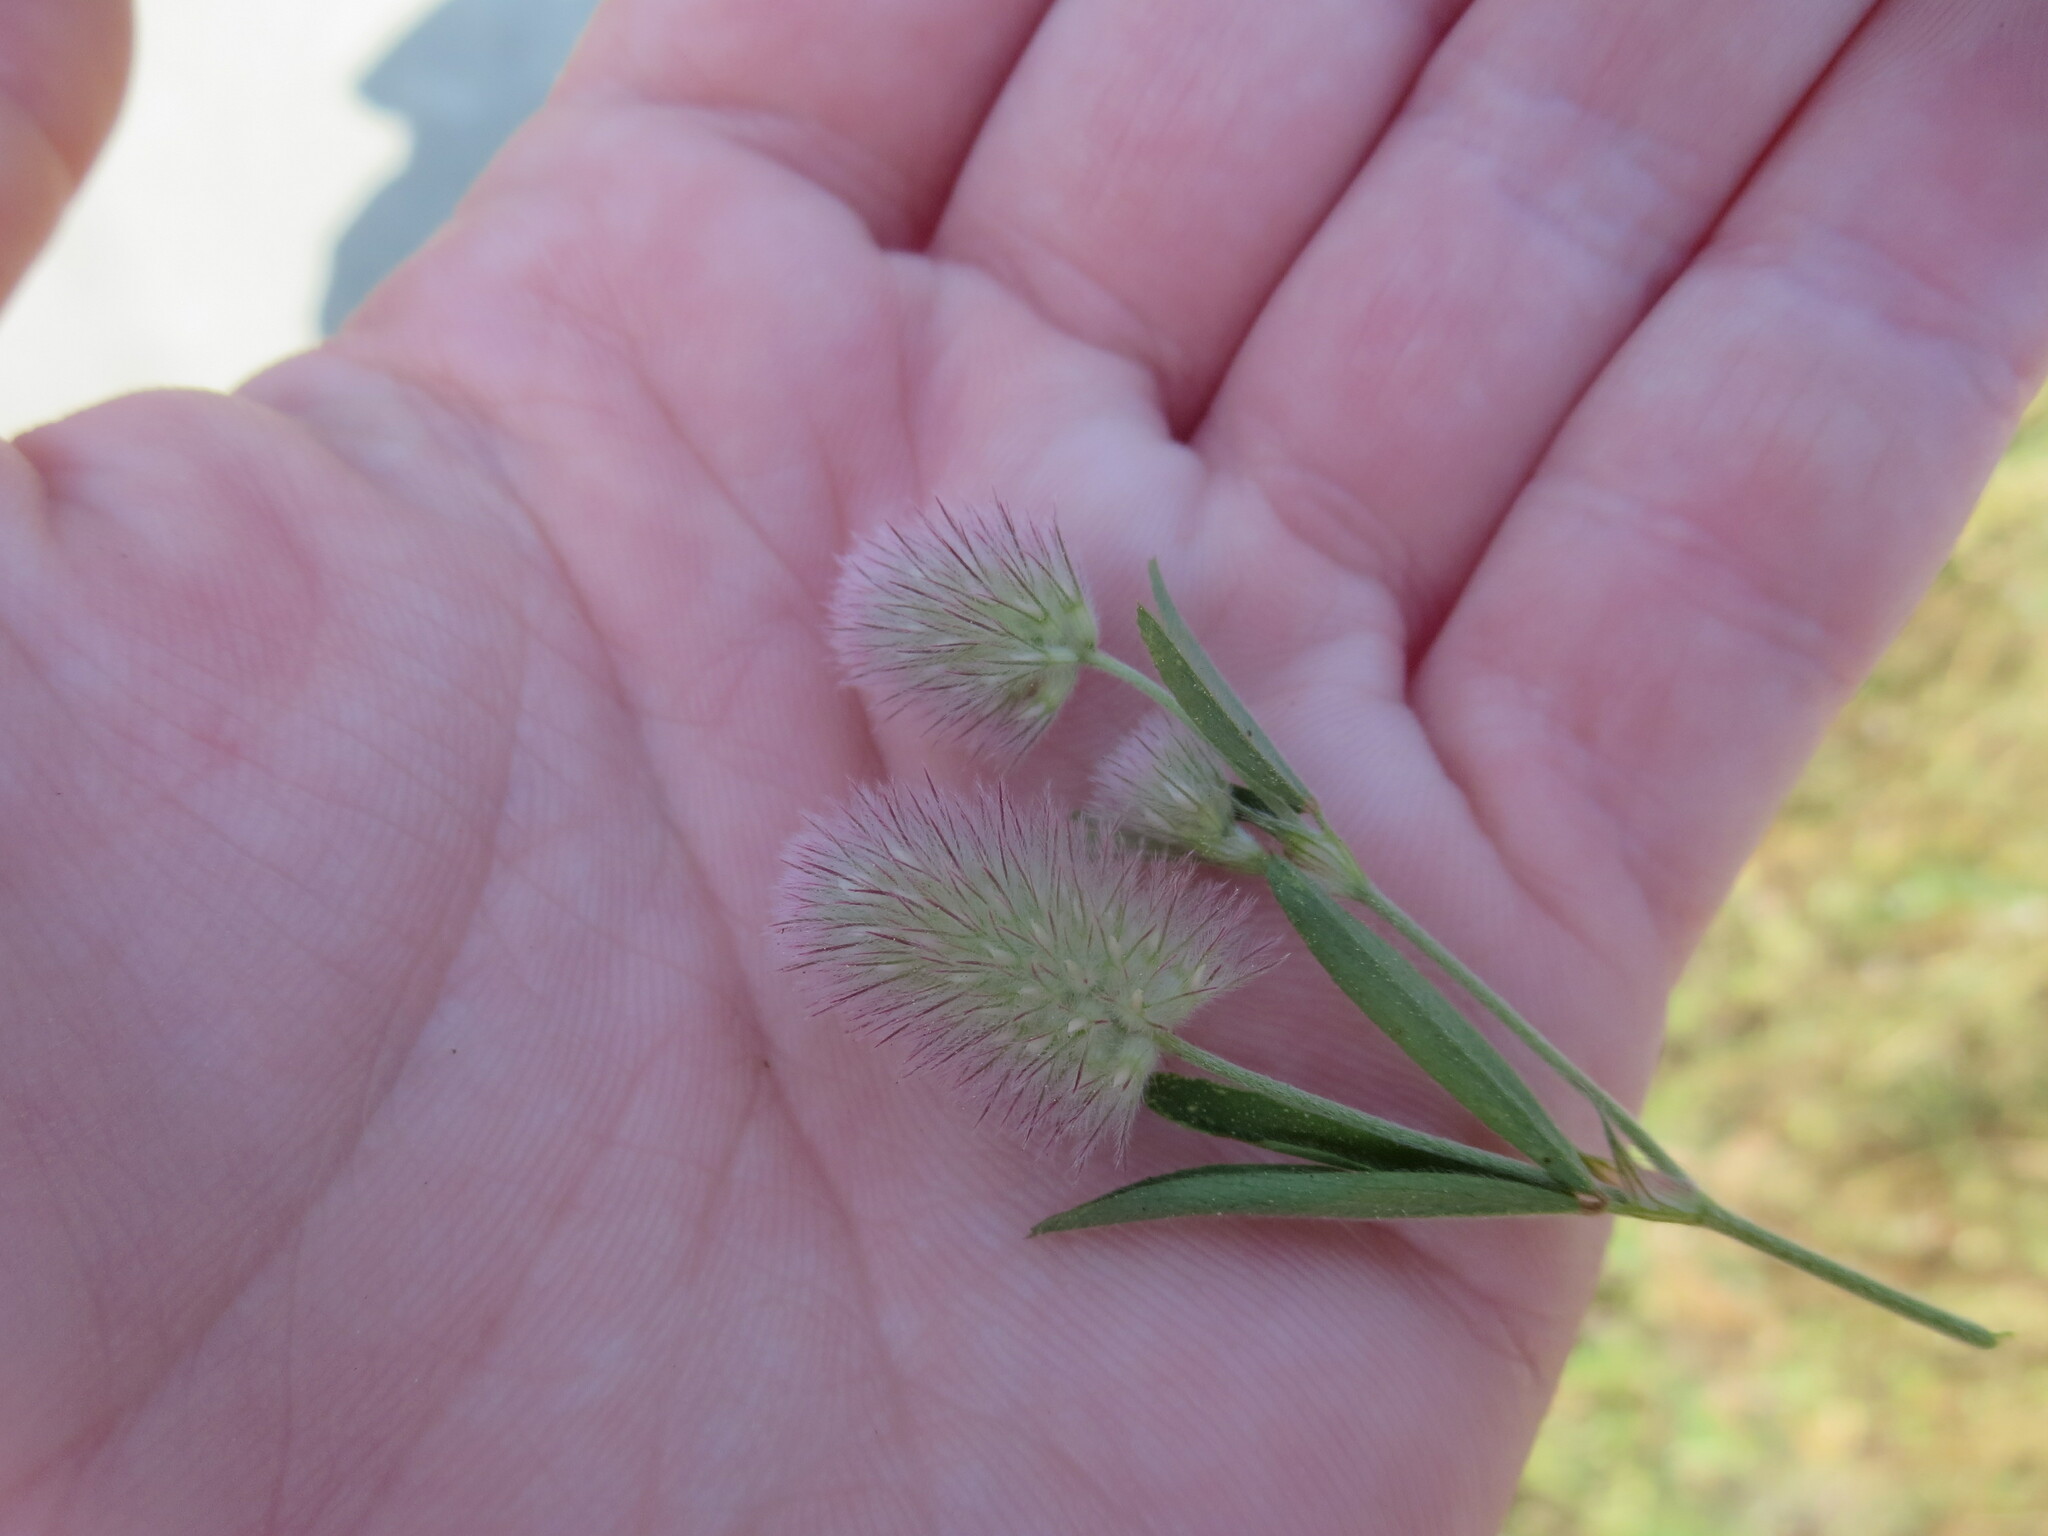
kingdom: Plantae
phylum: Tracheophyta
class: Magnoliopsida
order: Fabales
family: Fabaceae
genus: Trifolium
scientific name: Trifolium arvense
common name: Hare's-foot clover
